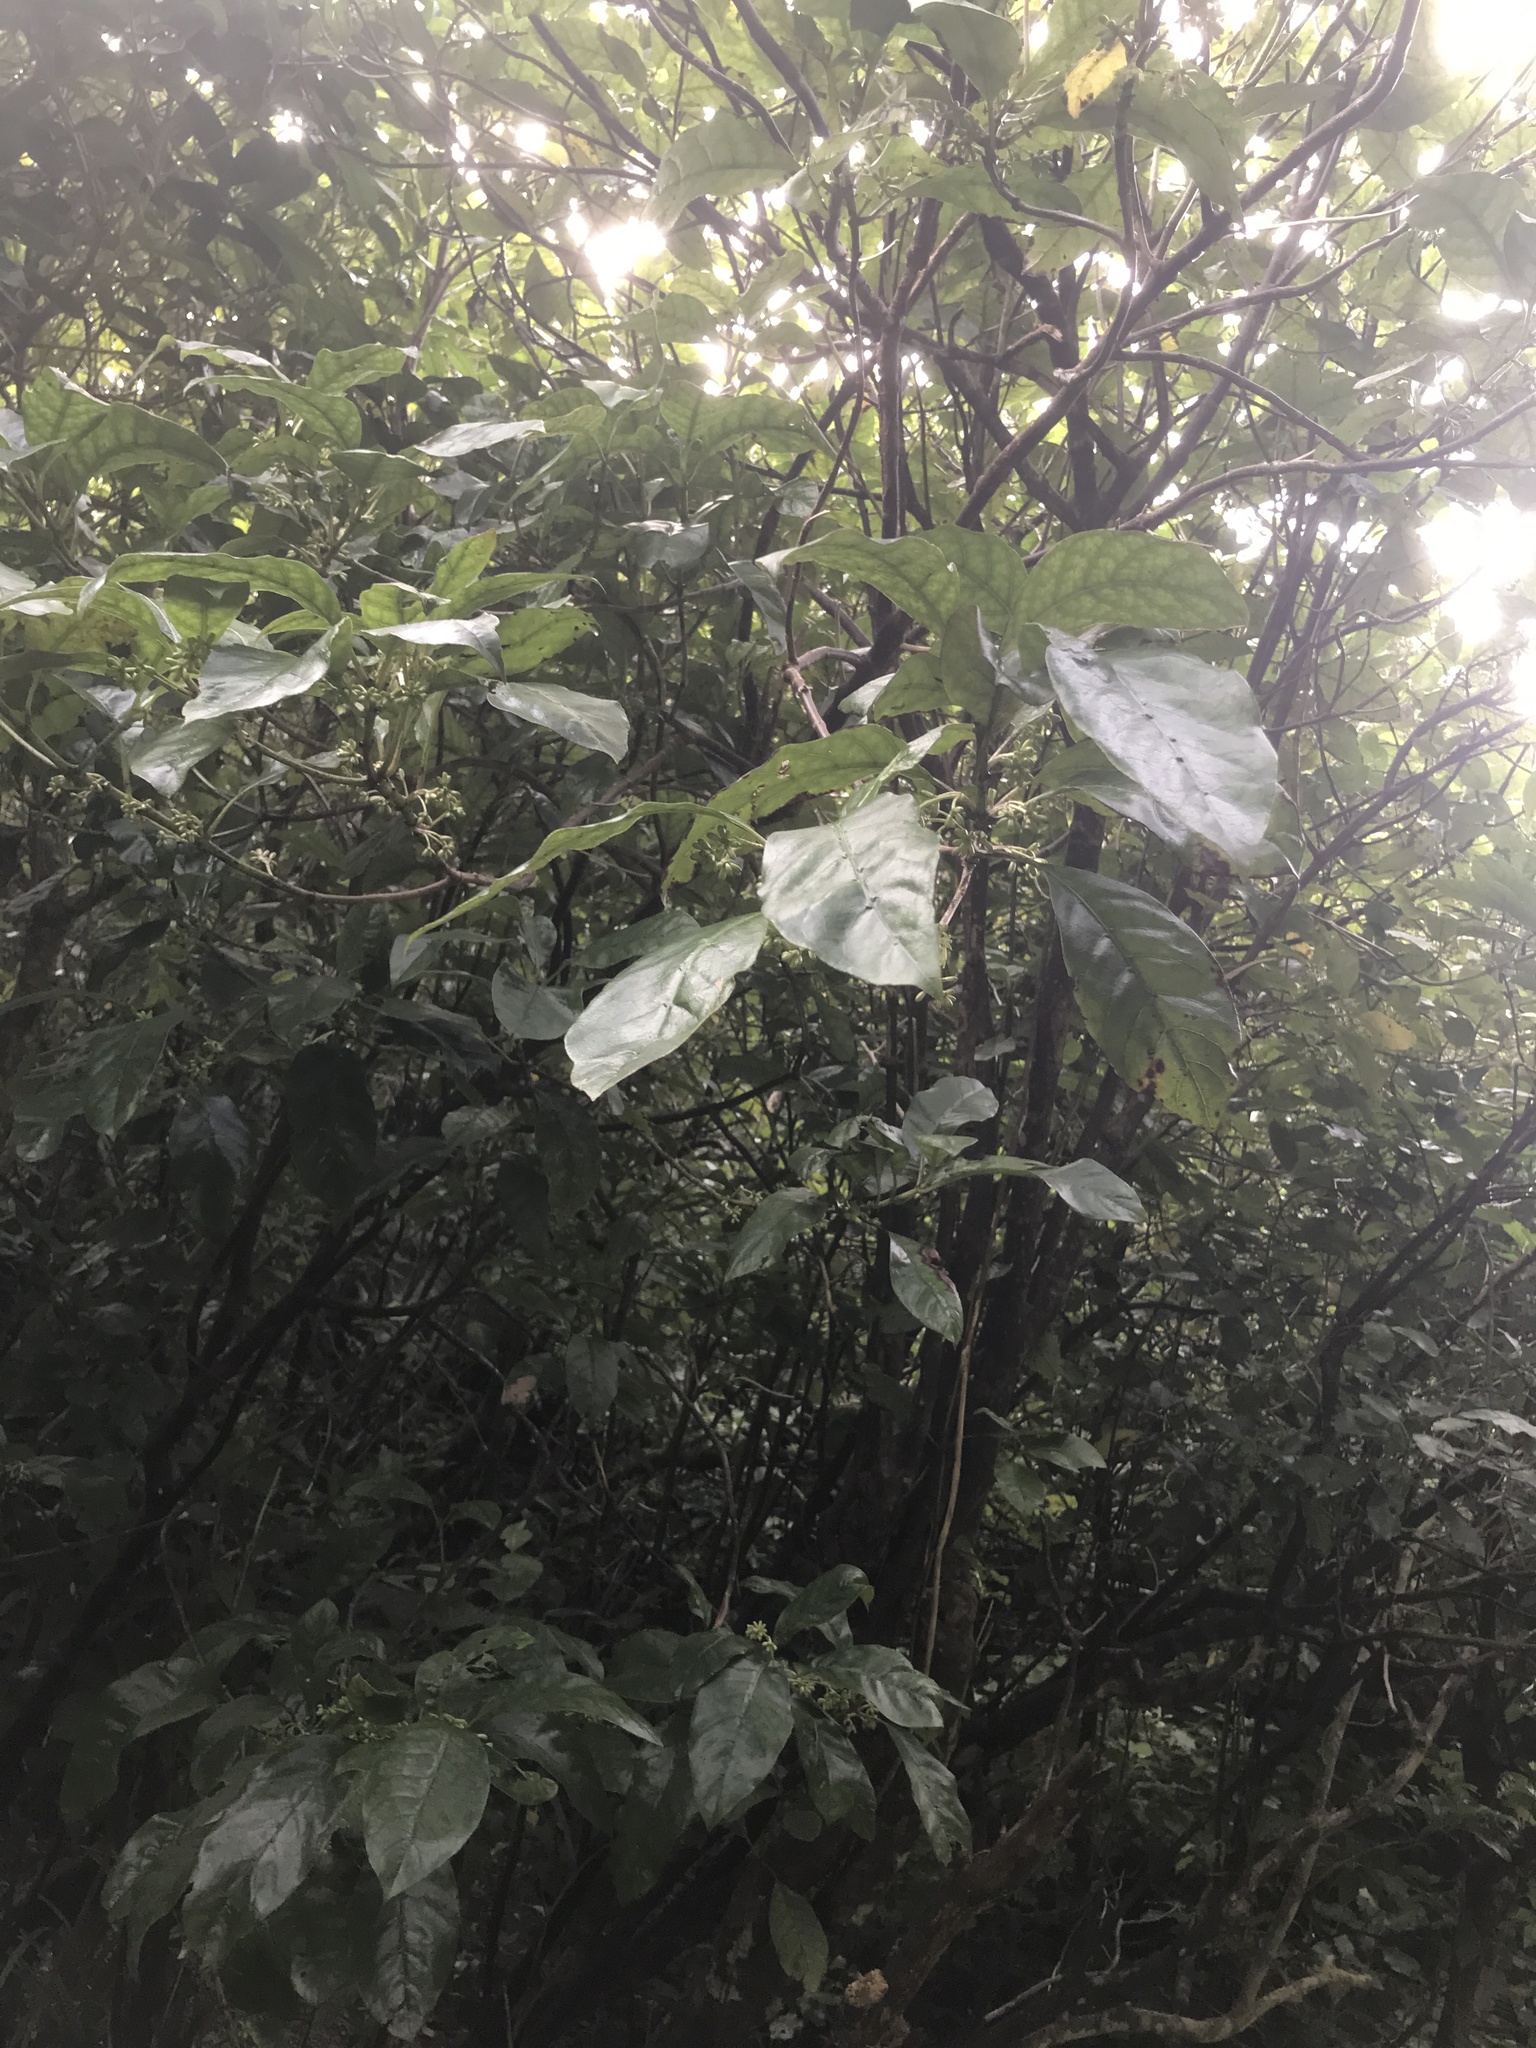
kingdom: Plantae
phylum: Tracheophyta
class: Magnoliopsida
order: Gentianales
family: Rubiaceae
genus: Coprosma
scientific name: Coprosma autumnalis
